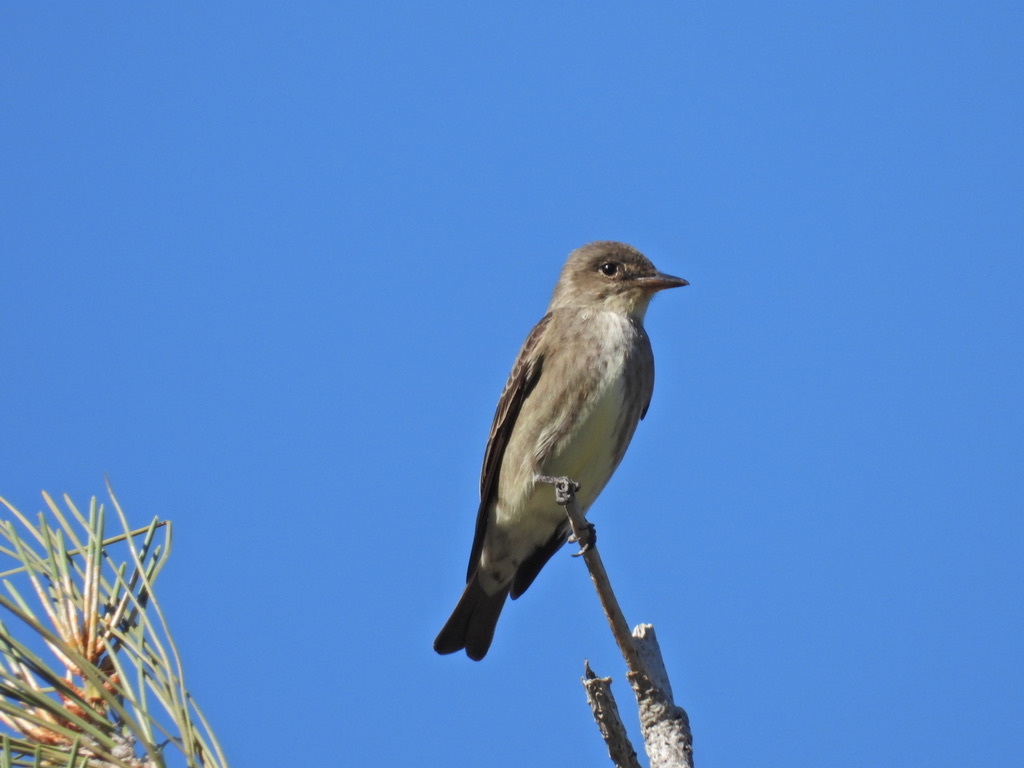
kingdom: Animalia
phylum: Chordata
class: Aves
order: Passeriformes
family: Tyrannidae
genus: Contopus
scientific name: Contopus cooperi
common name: Olive-sided flycatcher
